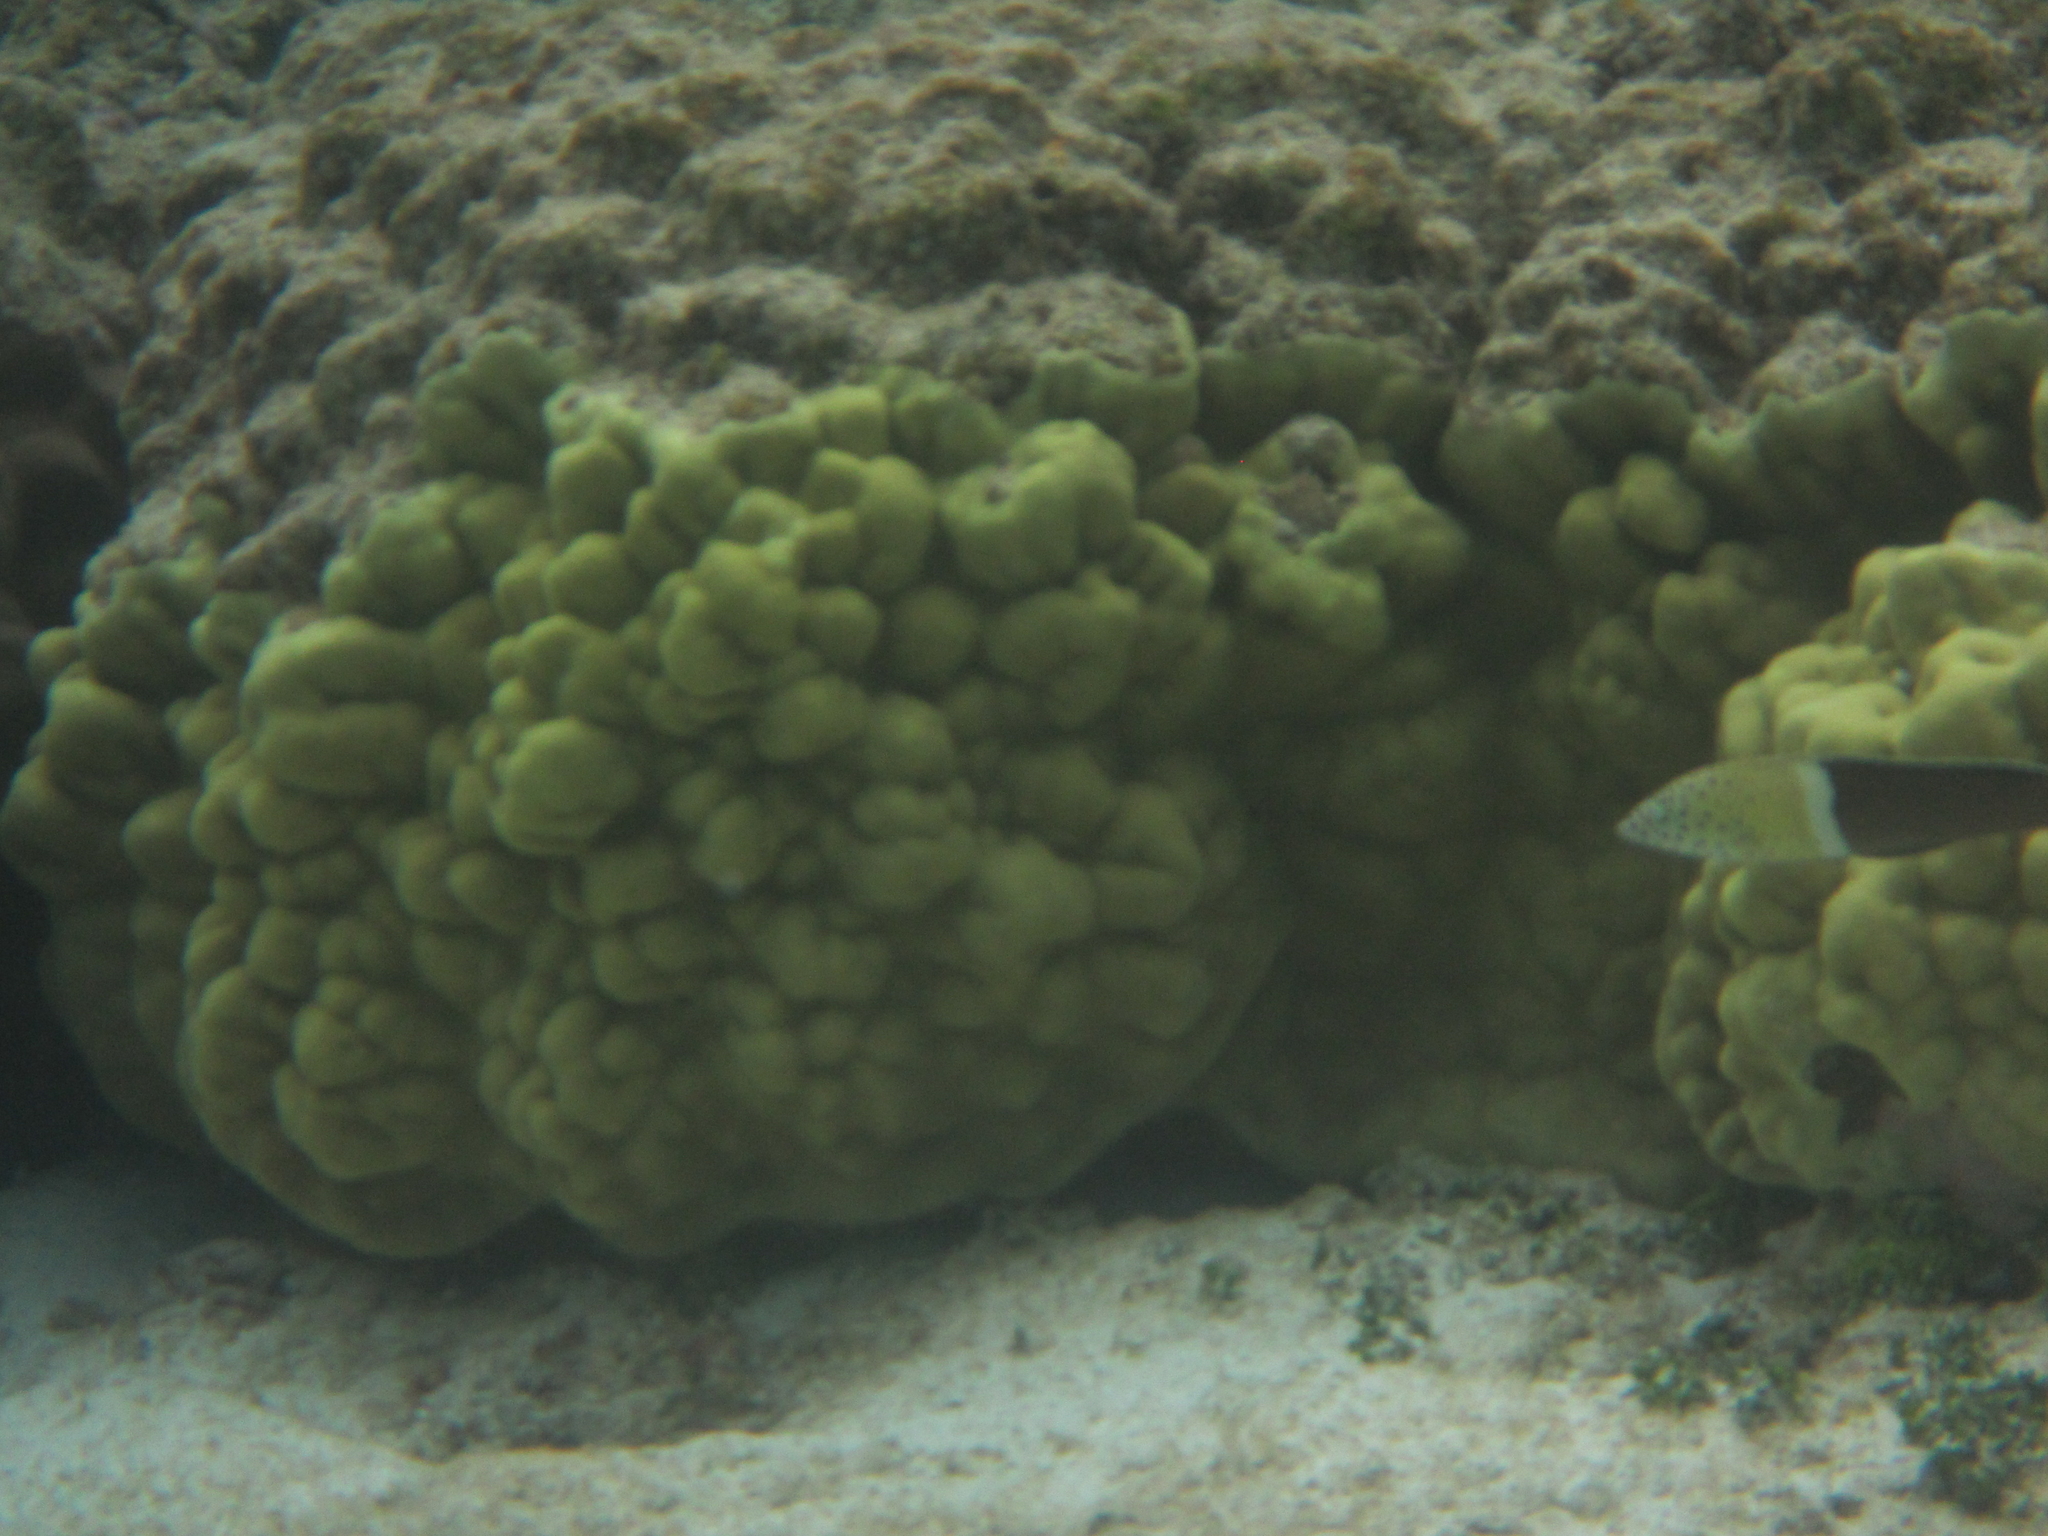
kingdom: Animalia
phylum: Chordata
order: Perciformes
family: Labridae
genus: Coris
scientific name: Coris aygula
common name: Clown coris
